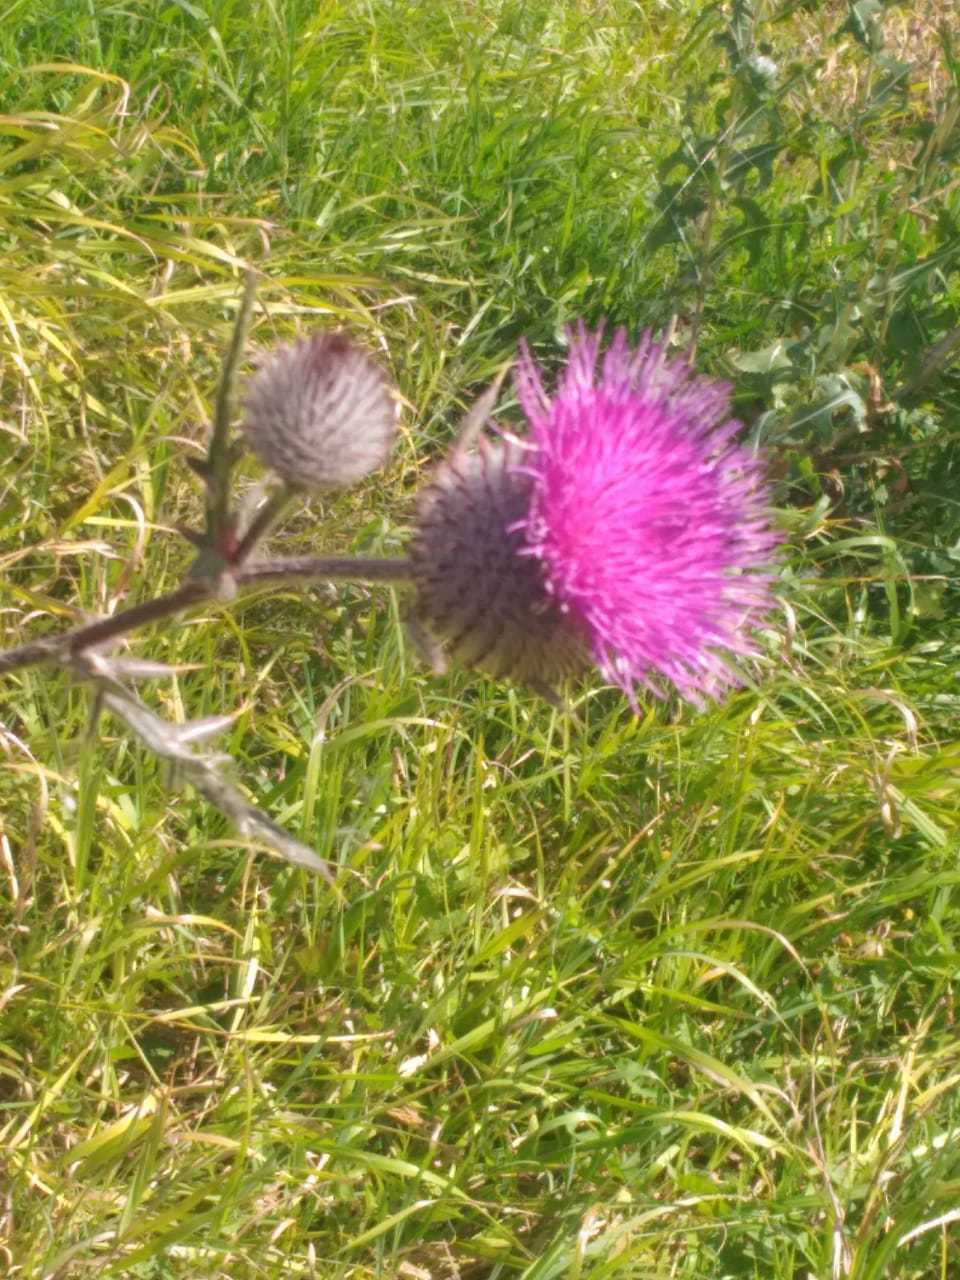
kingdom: Plantae
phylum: Tracheophyta
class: Magnoliopsida
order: Asterales
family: Asteraceae
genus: Lophiolepis
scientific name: Lophiolepis decussata
